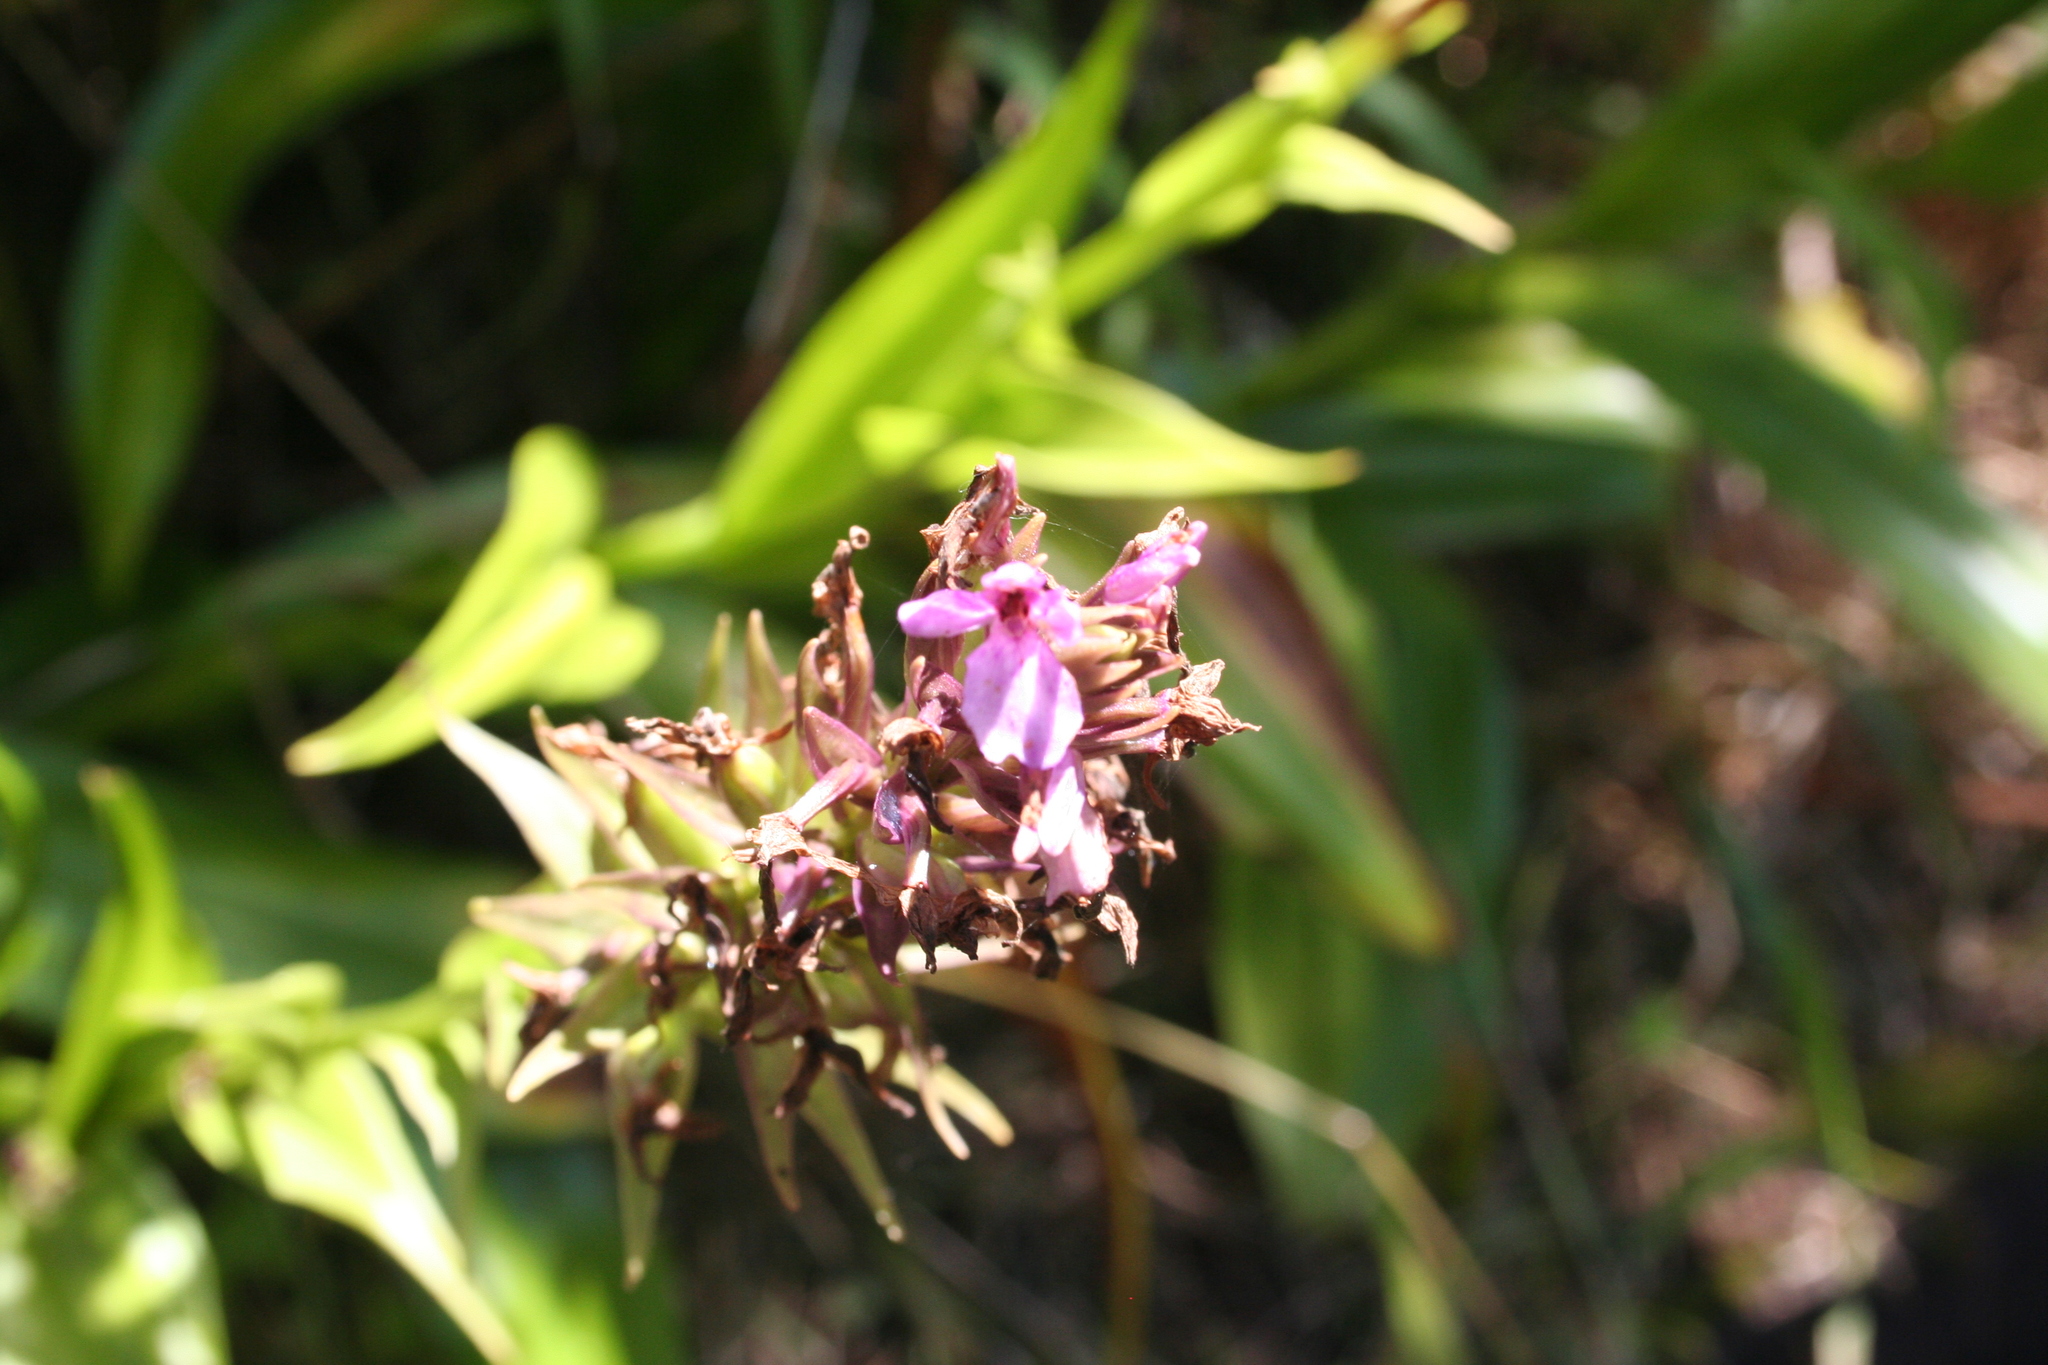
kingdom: Plantae
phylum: Tracheophyta
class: Liliopsida
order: Asparagales
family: Orchidaceae
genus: Dactylorhiza
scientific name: Dactylorhiza foliosa
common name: Richly-leaved dactylorhiza
